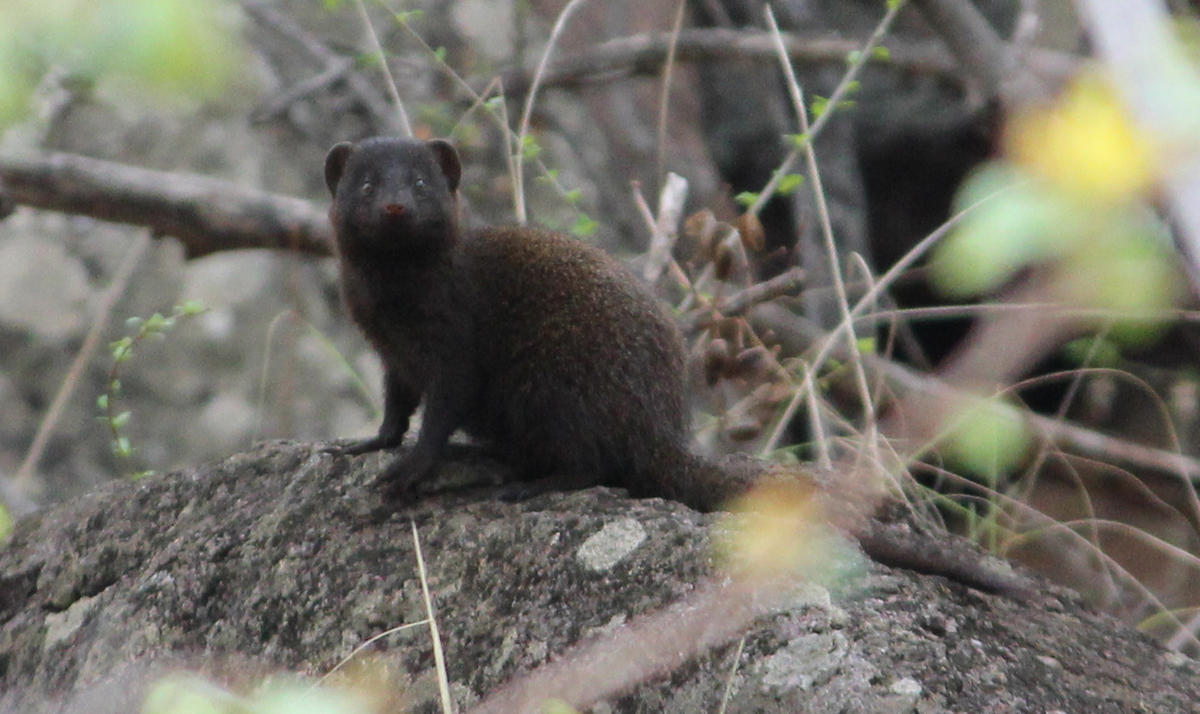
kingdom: Animalia
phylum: Chordata
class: Mammalia
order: Carnivora
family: Herpestidae
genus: Helogale
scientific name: Helogale parvula
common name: Common dwarf mongoose
